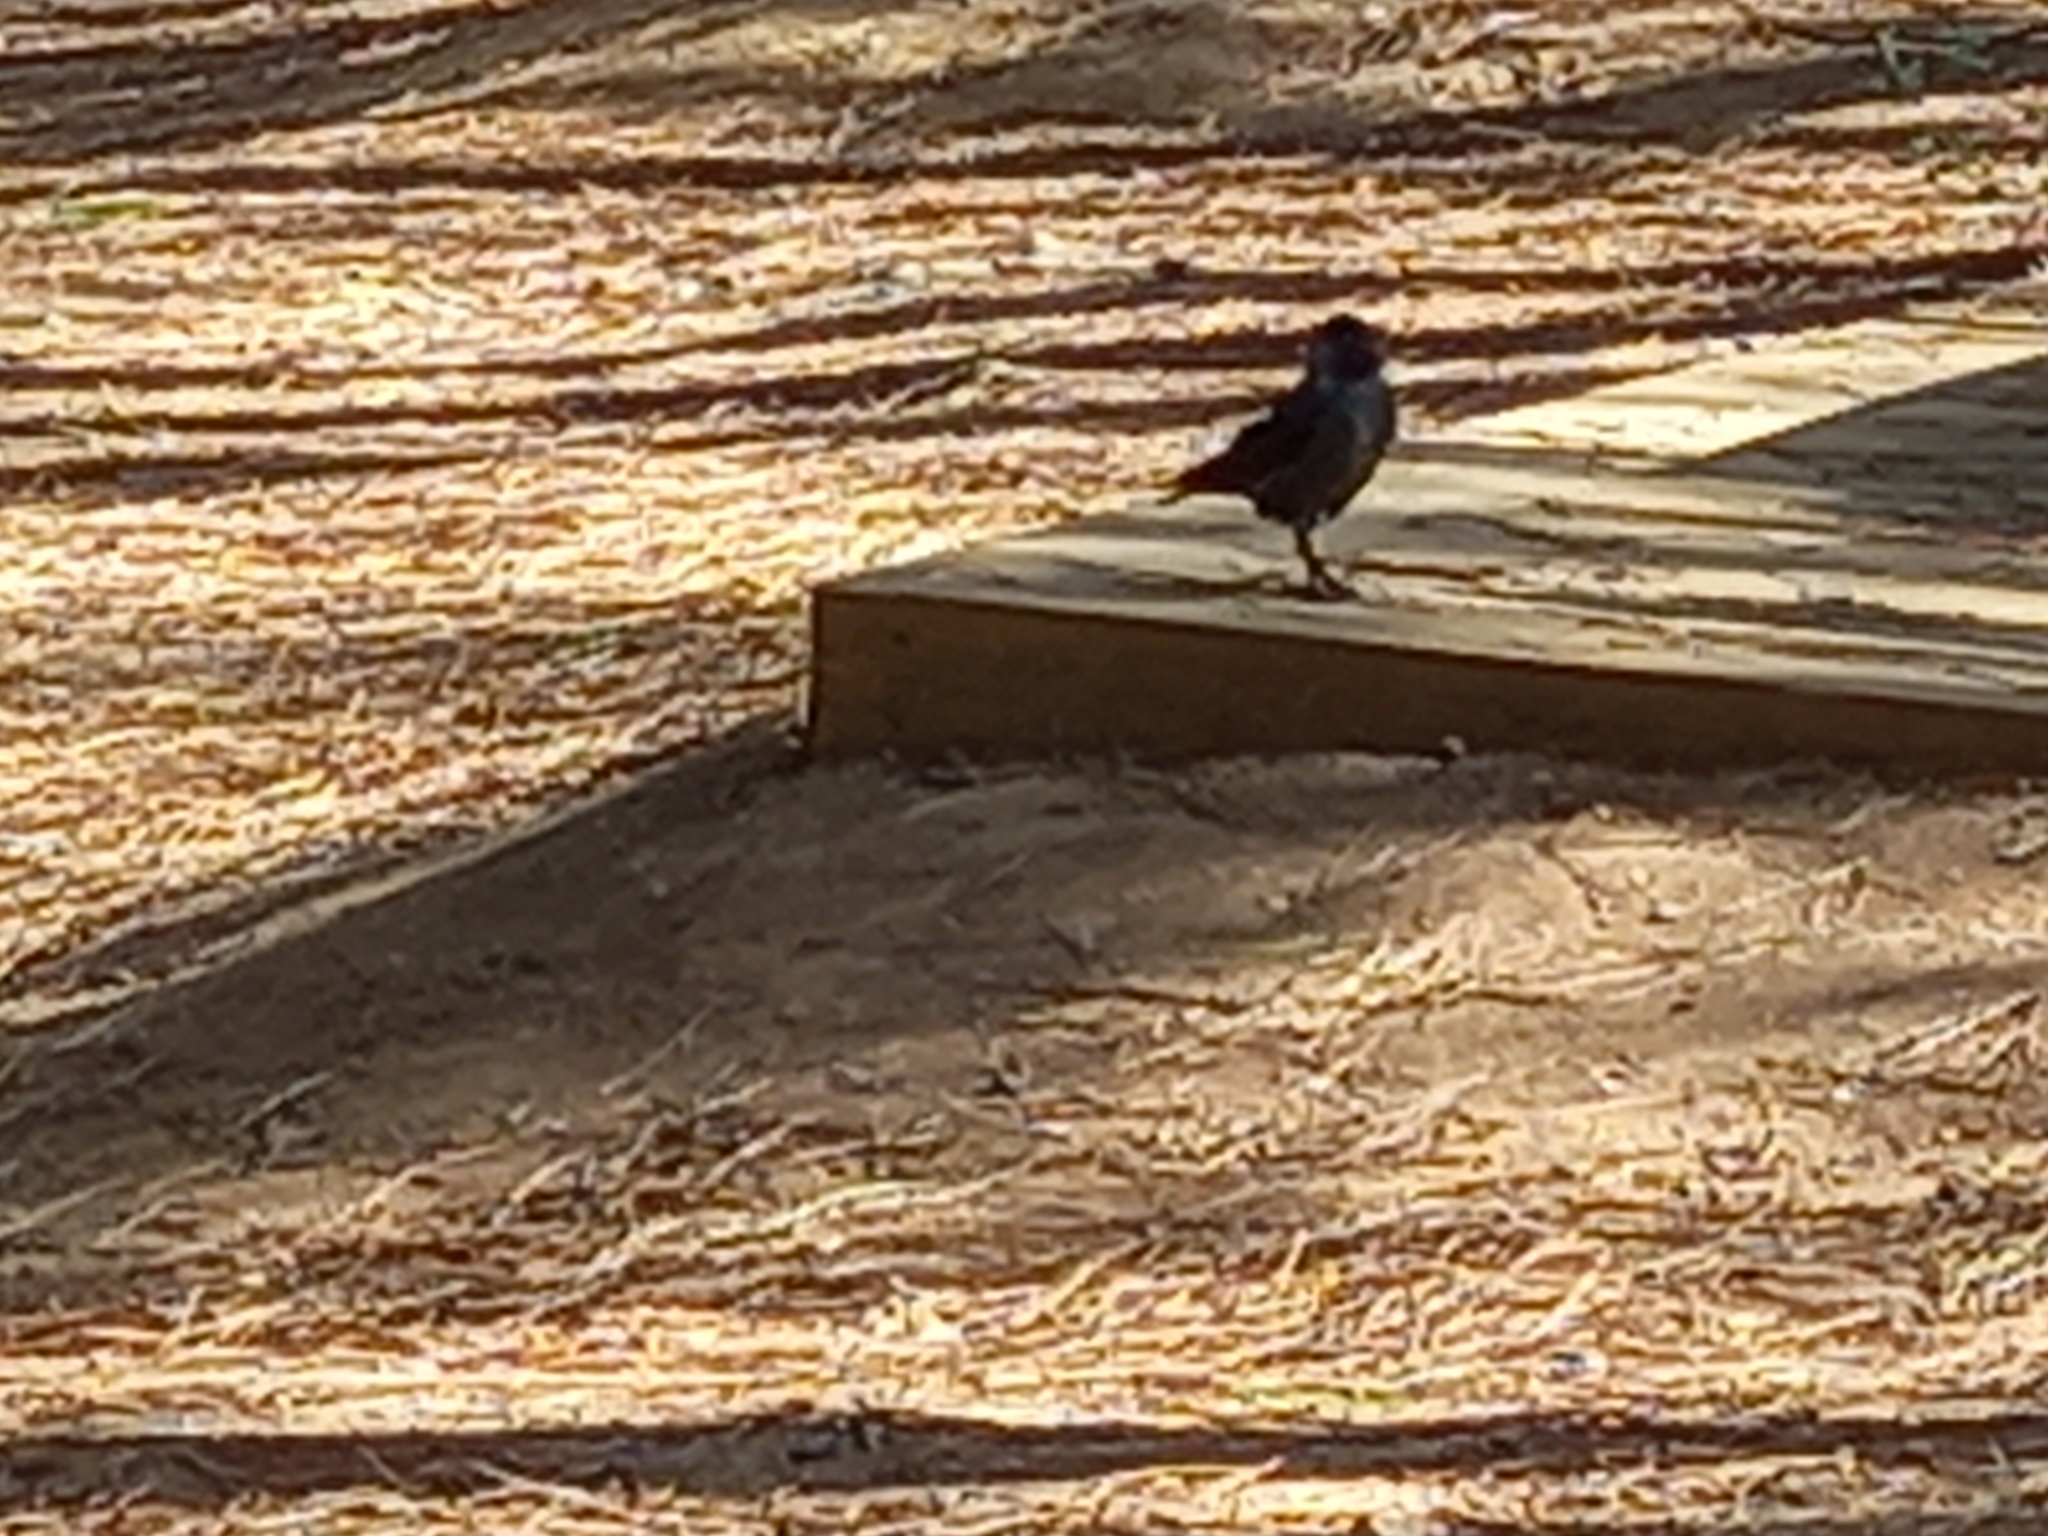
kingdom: Animalia
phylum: Chordata
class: Aves
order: Passeriformes
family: Corvidae
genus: Coloeus
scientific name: Coloeus monedula
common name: Western jackdaw
